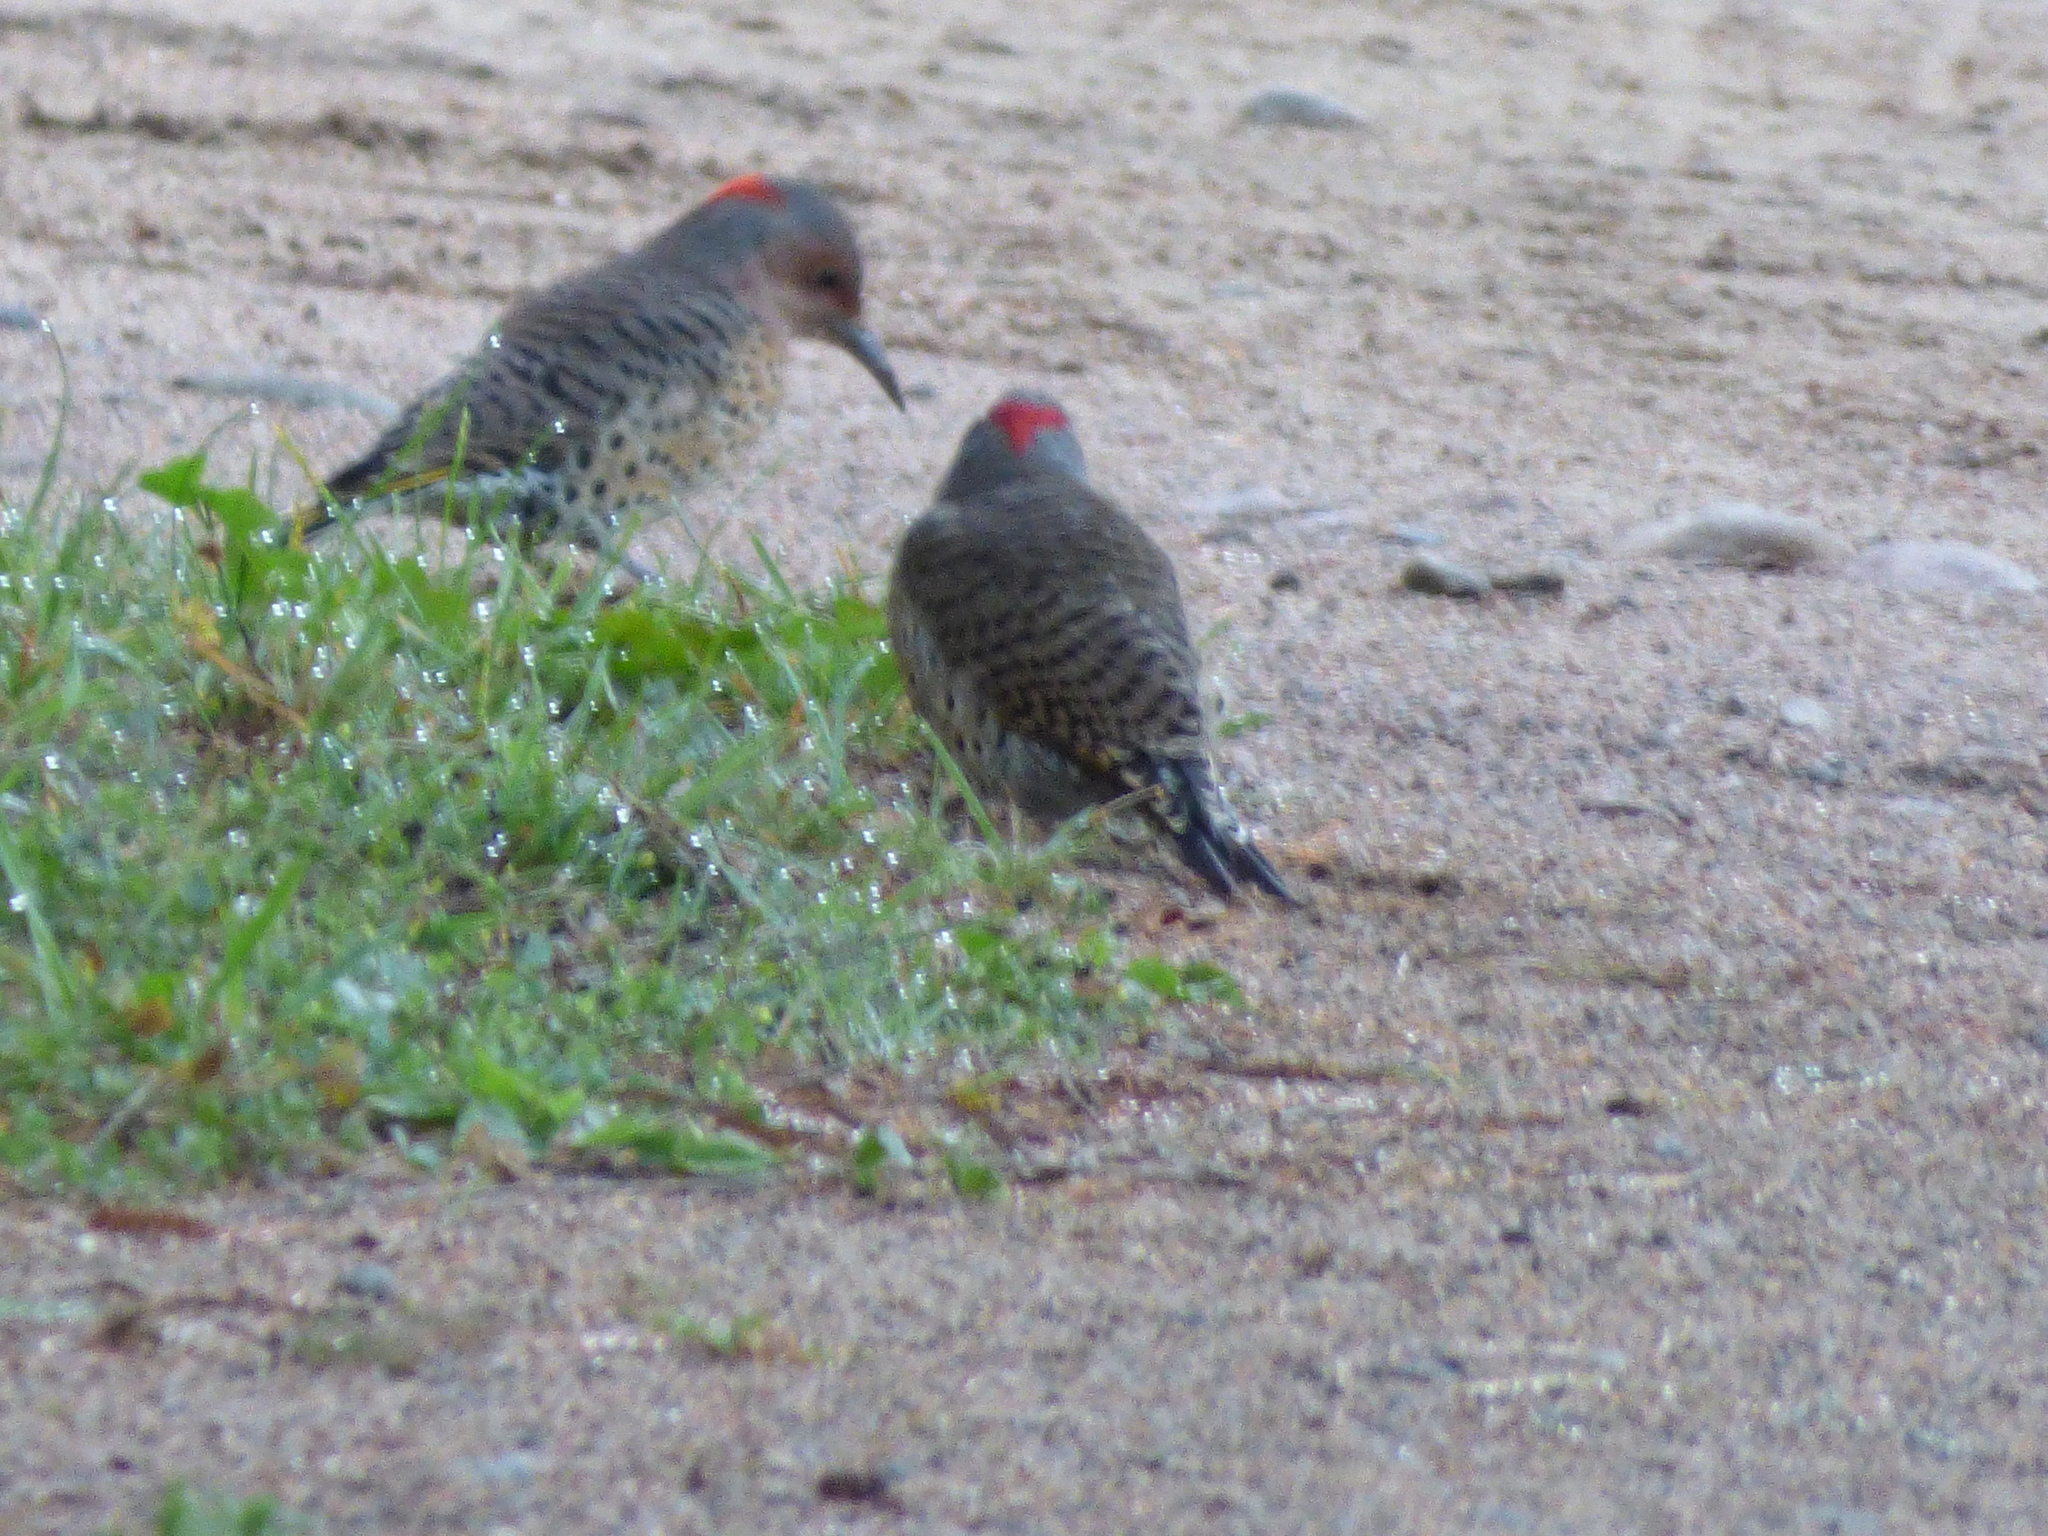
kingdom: Animalia
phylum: Chordata
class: Aves
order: Piciformes
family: Picidae
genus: Colaptes
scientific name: Colaptes auratus
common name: Northern flicker
